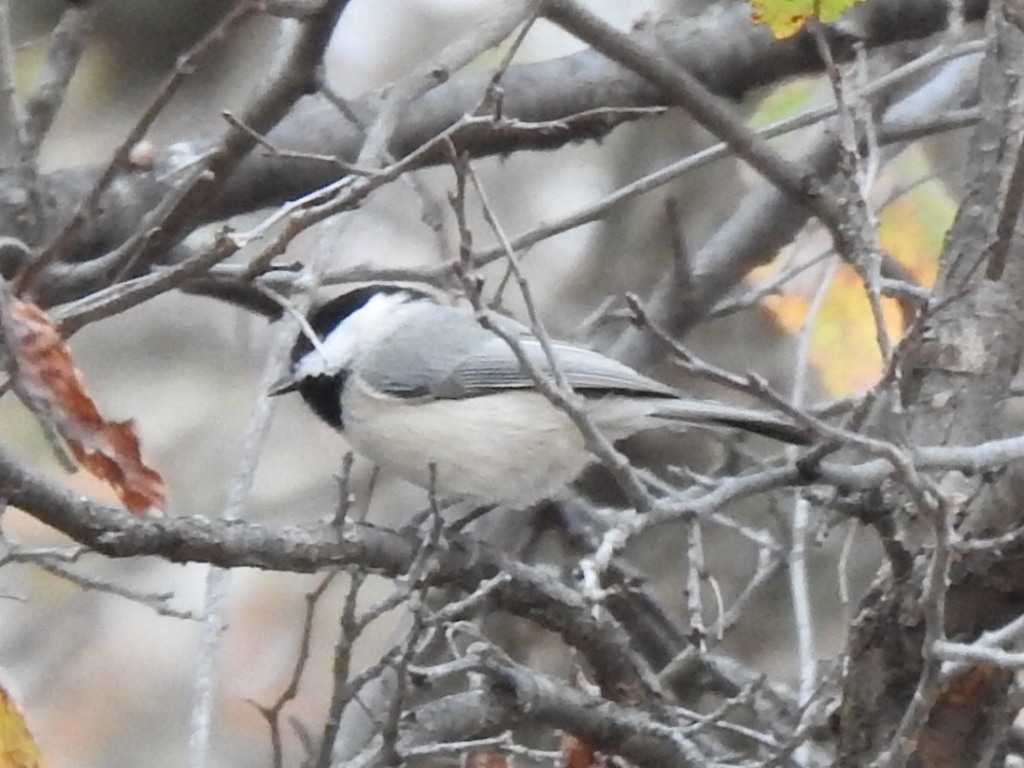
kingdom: Animalia
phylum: Chordata
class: Aves
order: Passeriformes
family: Paridae
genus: Poecile
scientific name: Poecile carolinensis
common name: Carolina chickadee
